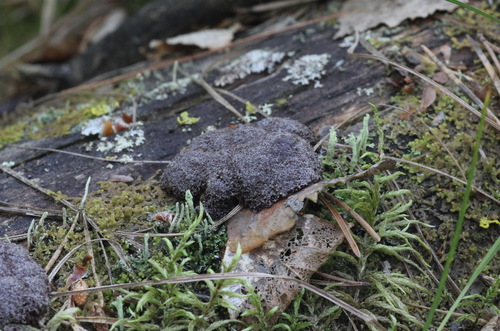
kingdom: Protozoa
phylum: Mycetozoa
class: Myxomycetes
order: Cribrariales
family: Tubiferaceae
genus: Reticularia
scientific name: Reticularia lycoperdon
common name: False puffball
